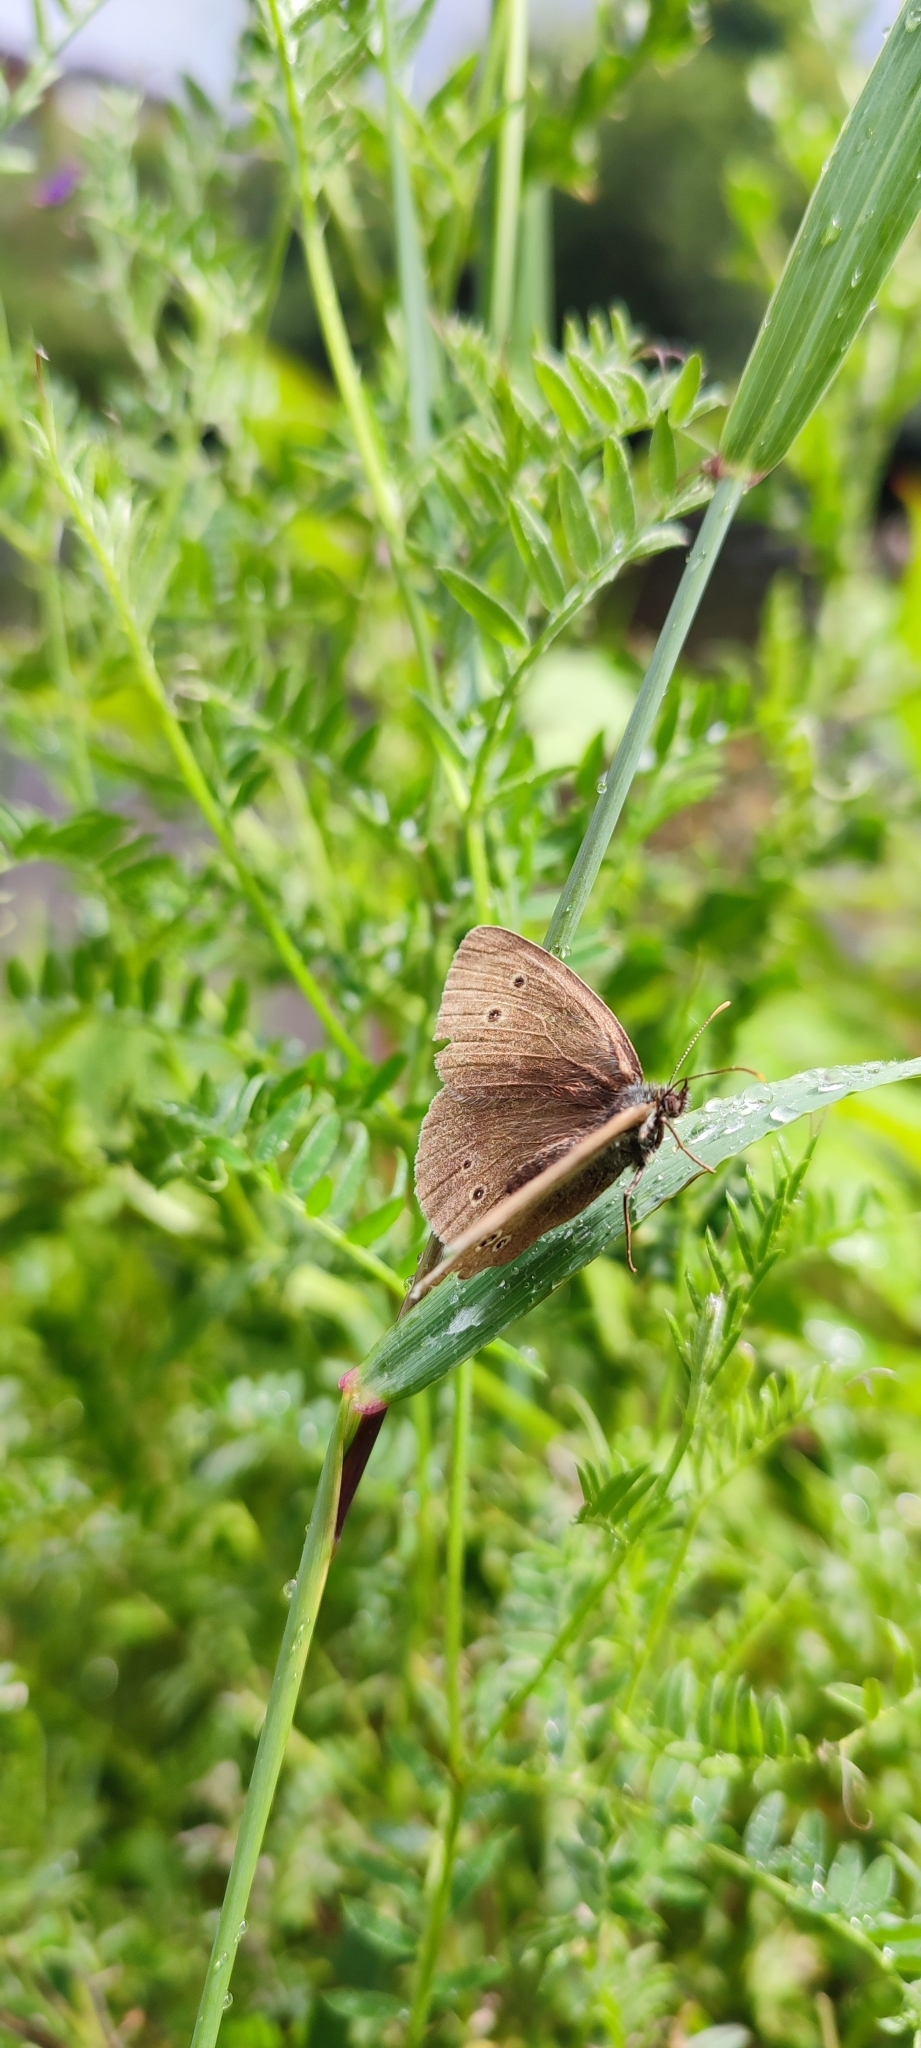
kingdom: Animalia
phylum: Arthropoda
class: Insecta
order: Lepidoptera
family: Nymphalidae
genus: Aphantopus
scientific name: Aphantopus hyperantus
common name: Ringlet
